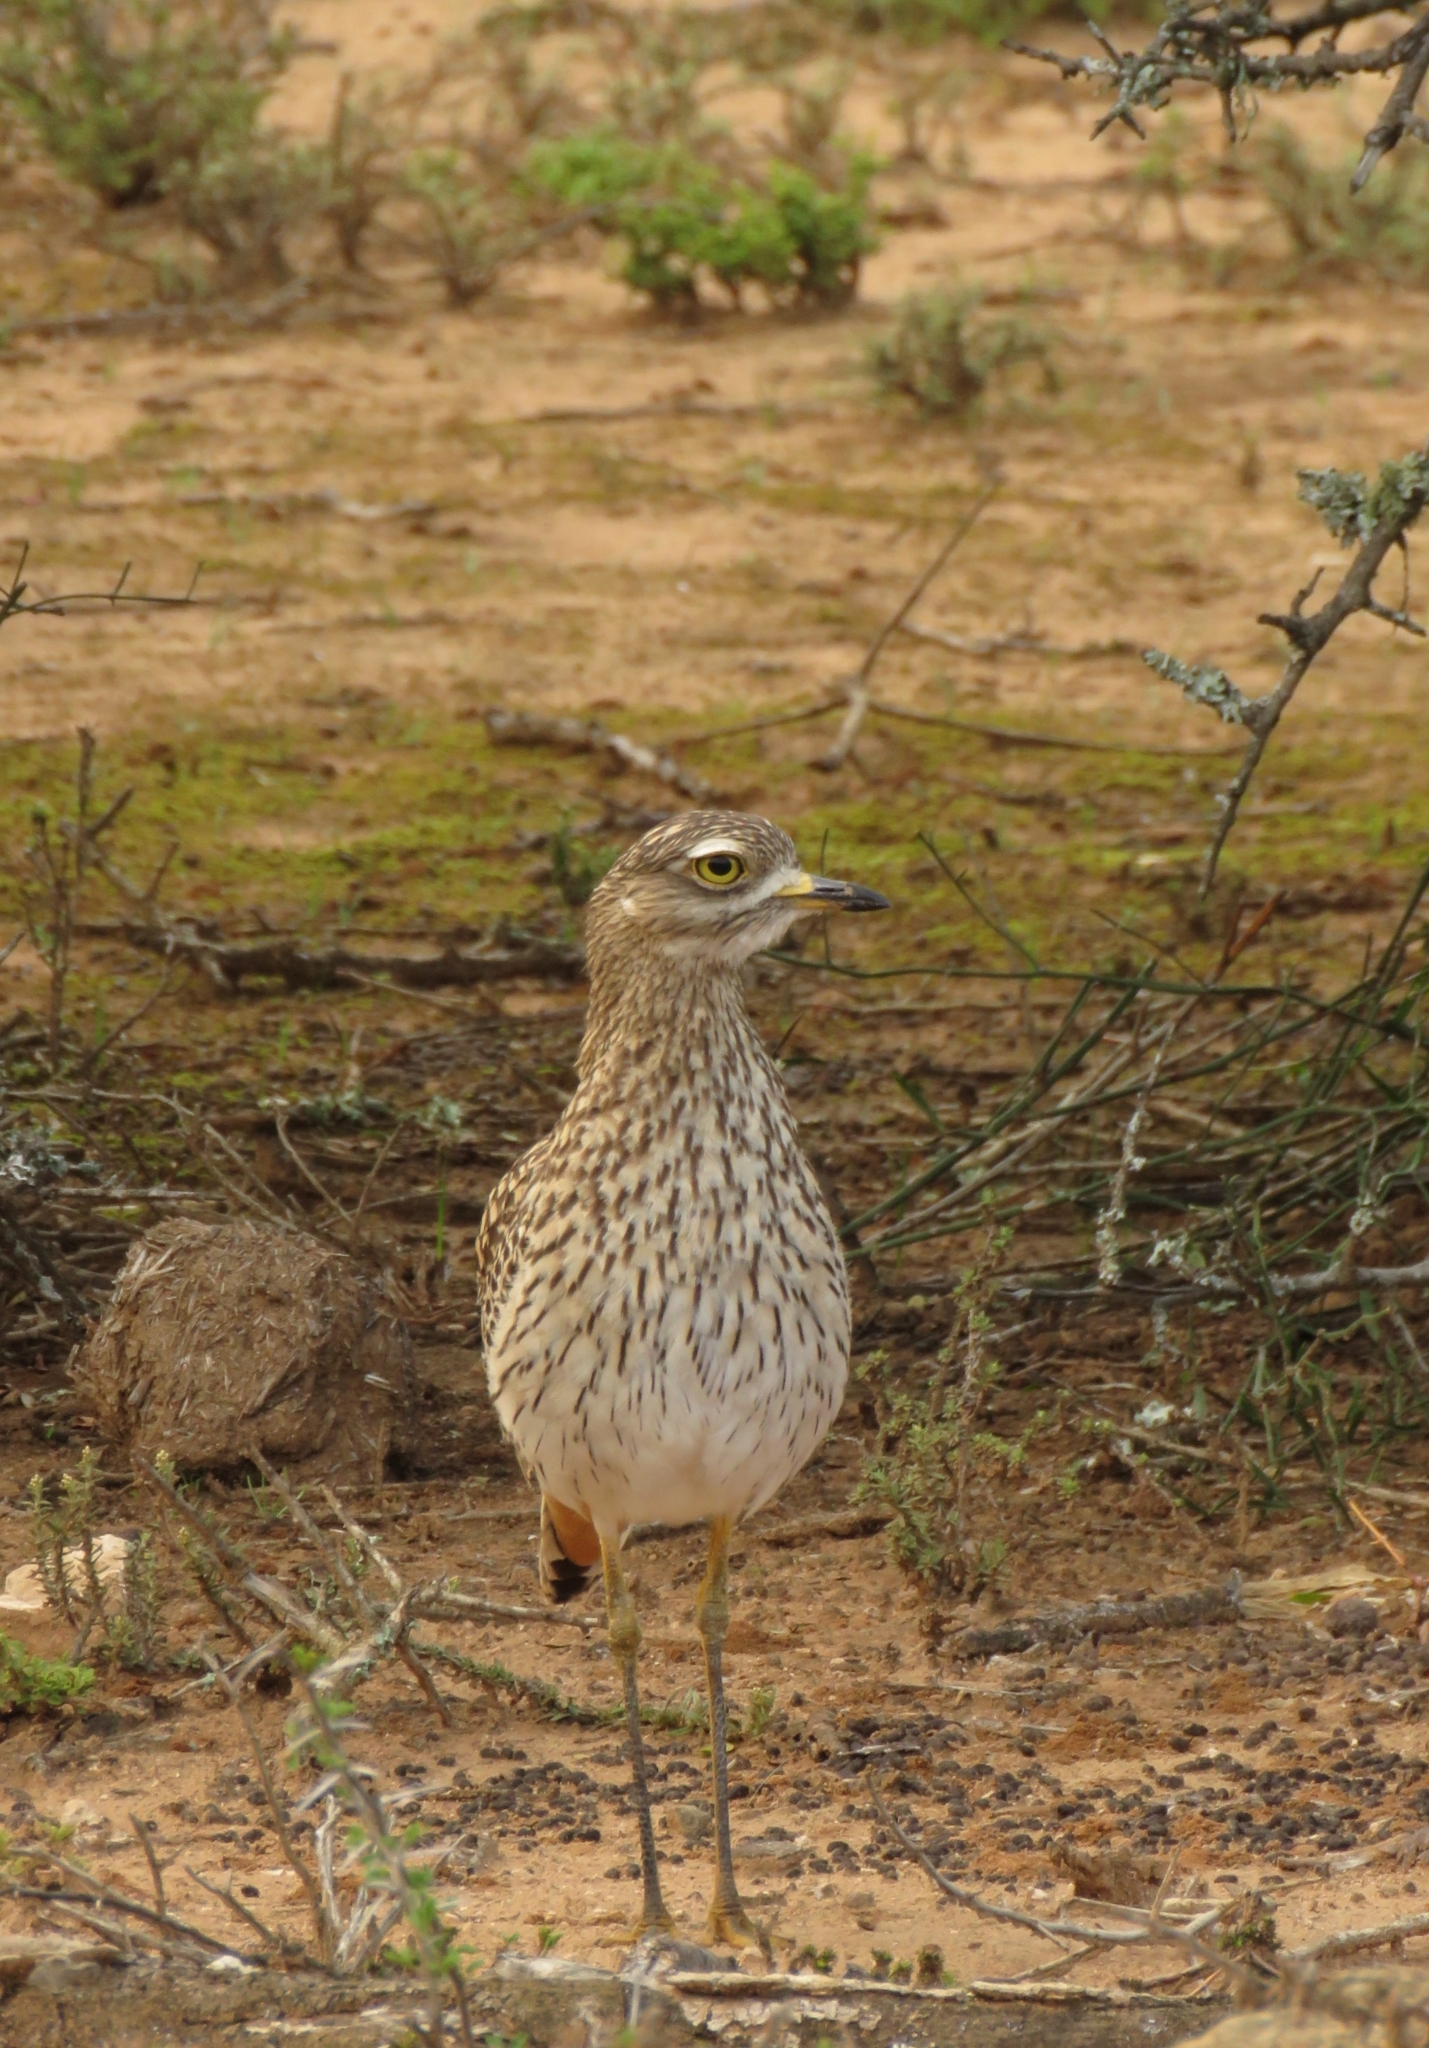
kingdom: Animalia
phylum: Chordata
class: Aves
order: Charadriiformes
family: Burhinidae
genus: Burhinus
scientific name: Burhinus capensis
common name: Spotted thick-knee
